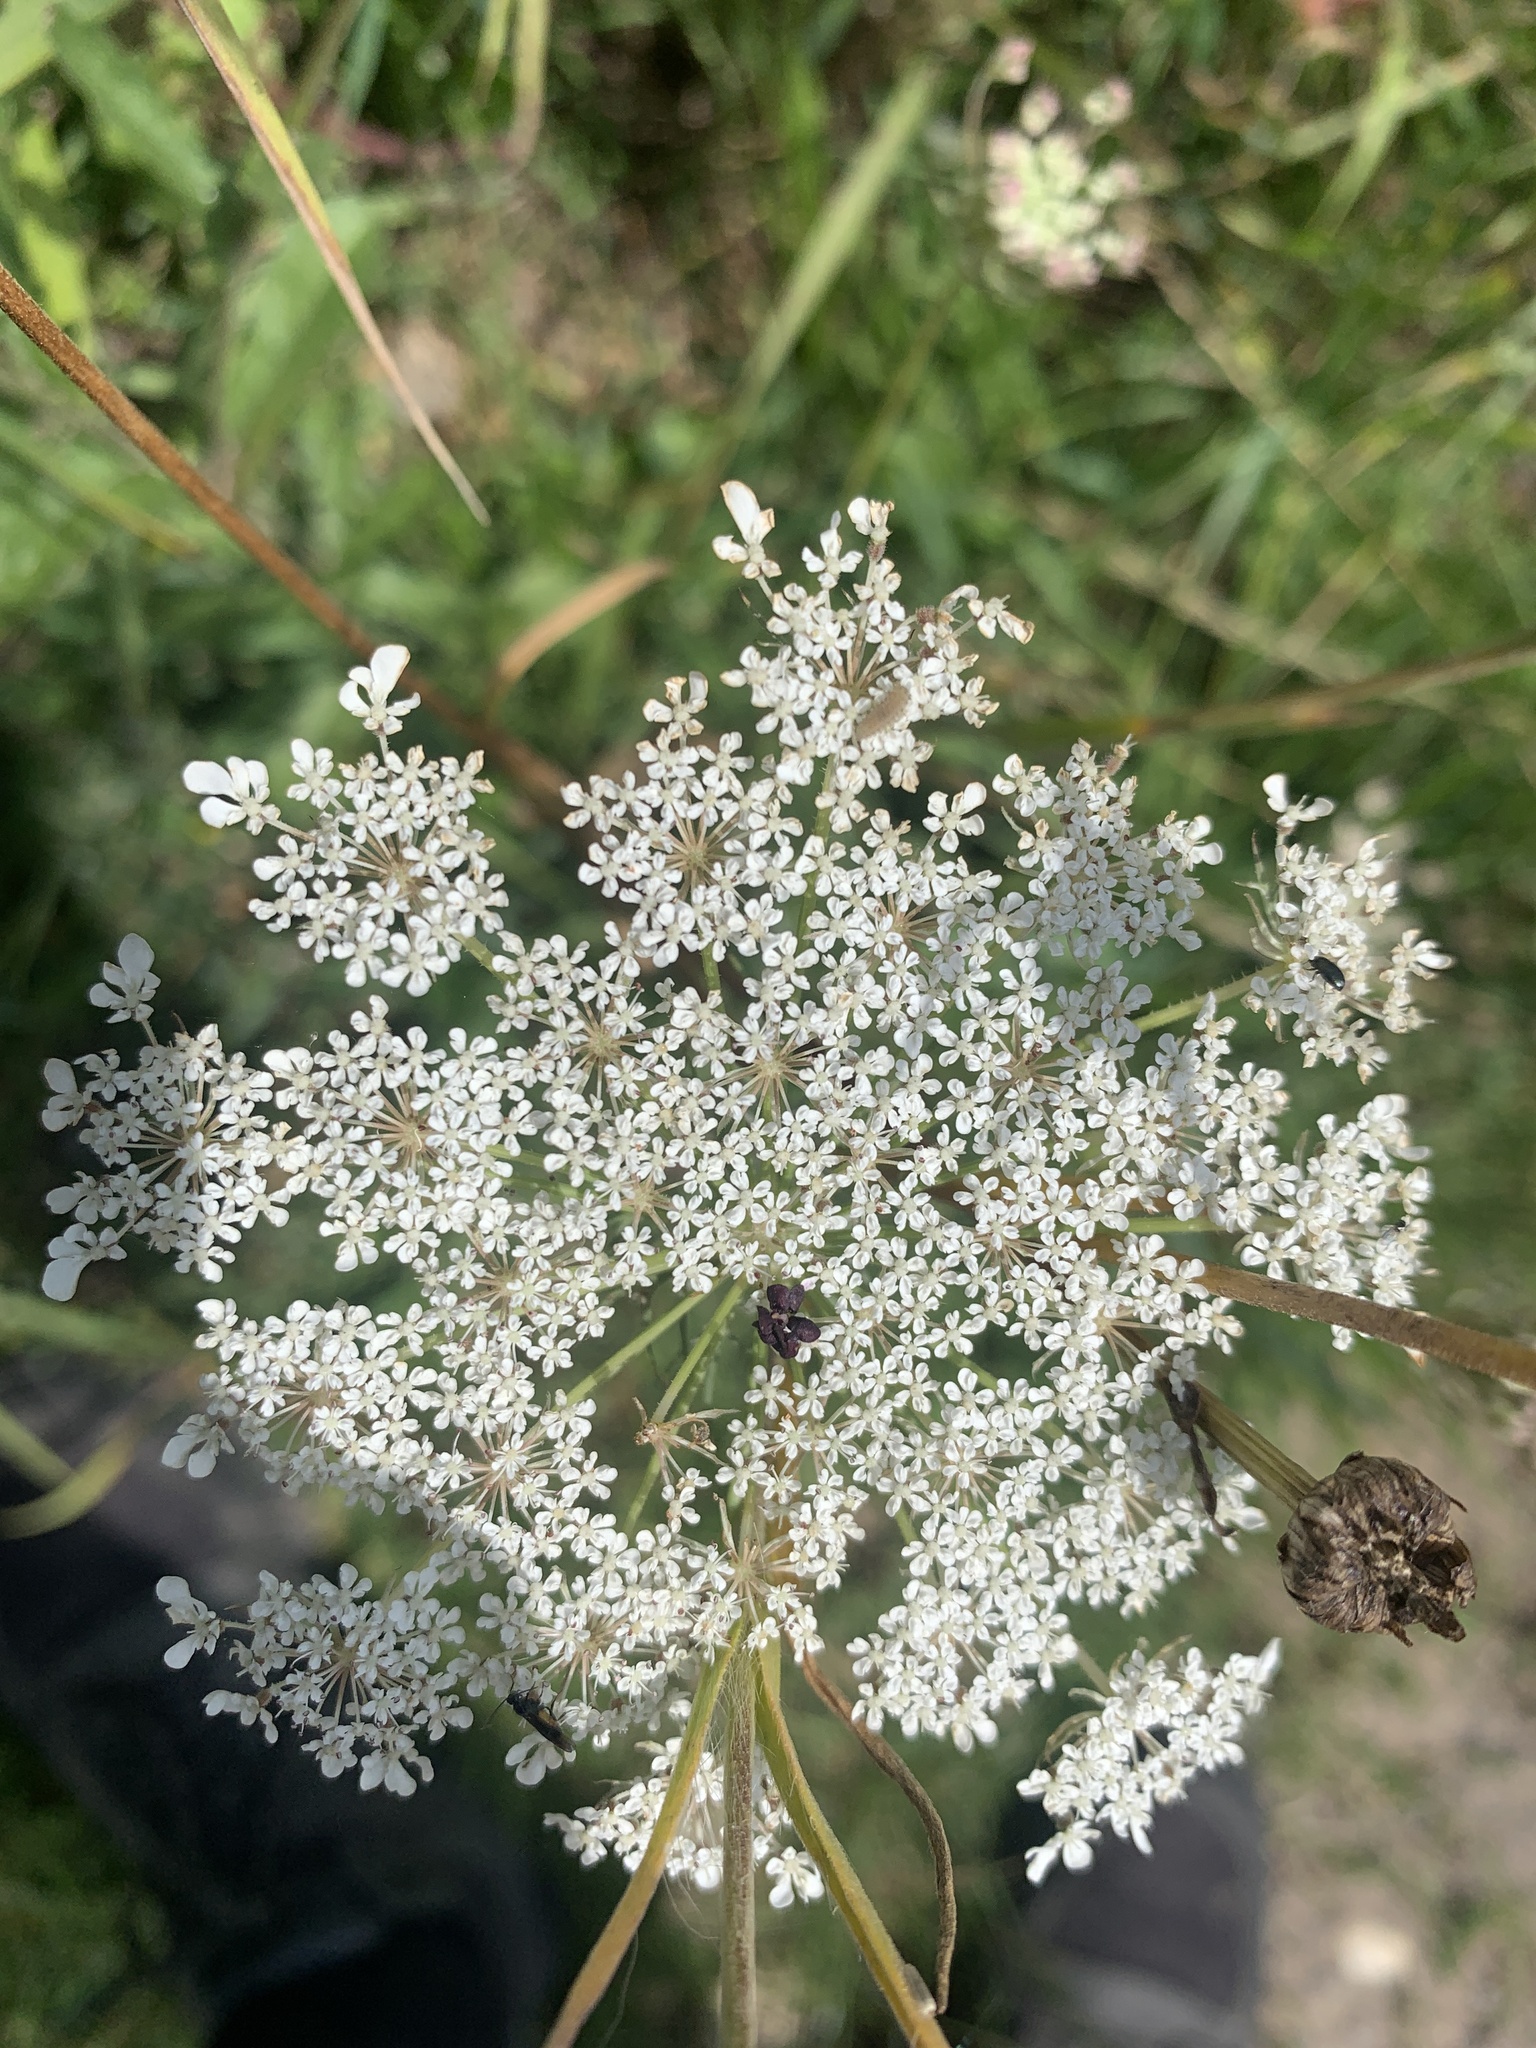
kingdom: Plantae
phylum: Tracheophyta
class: Magnoliopsida
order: Apiales
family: Apiaceae
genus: Daucus
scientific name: Daucus carota
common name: Wild carrot
